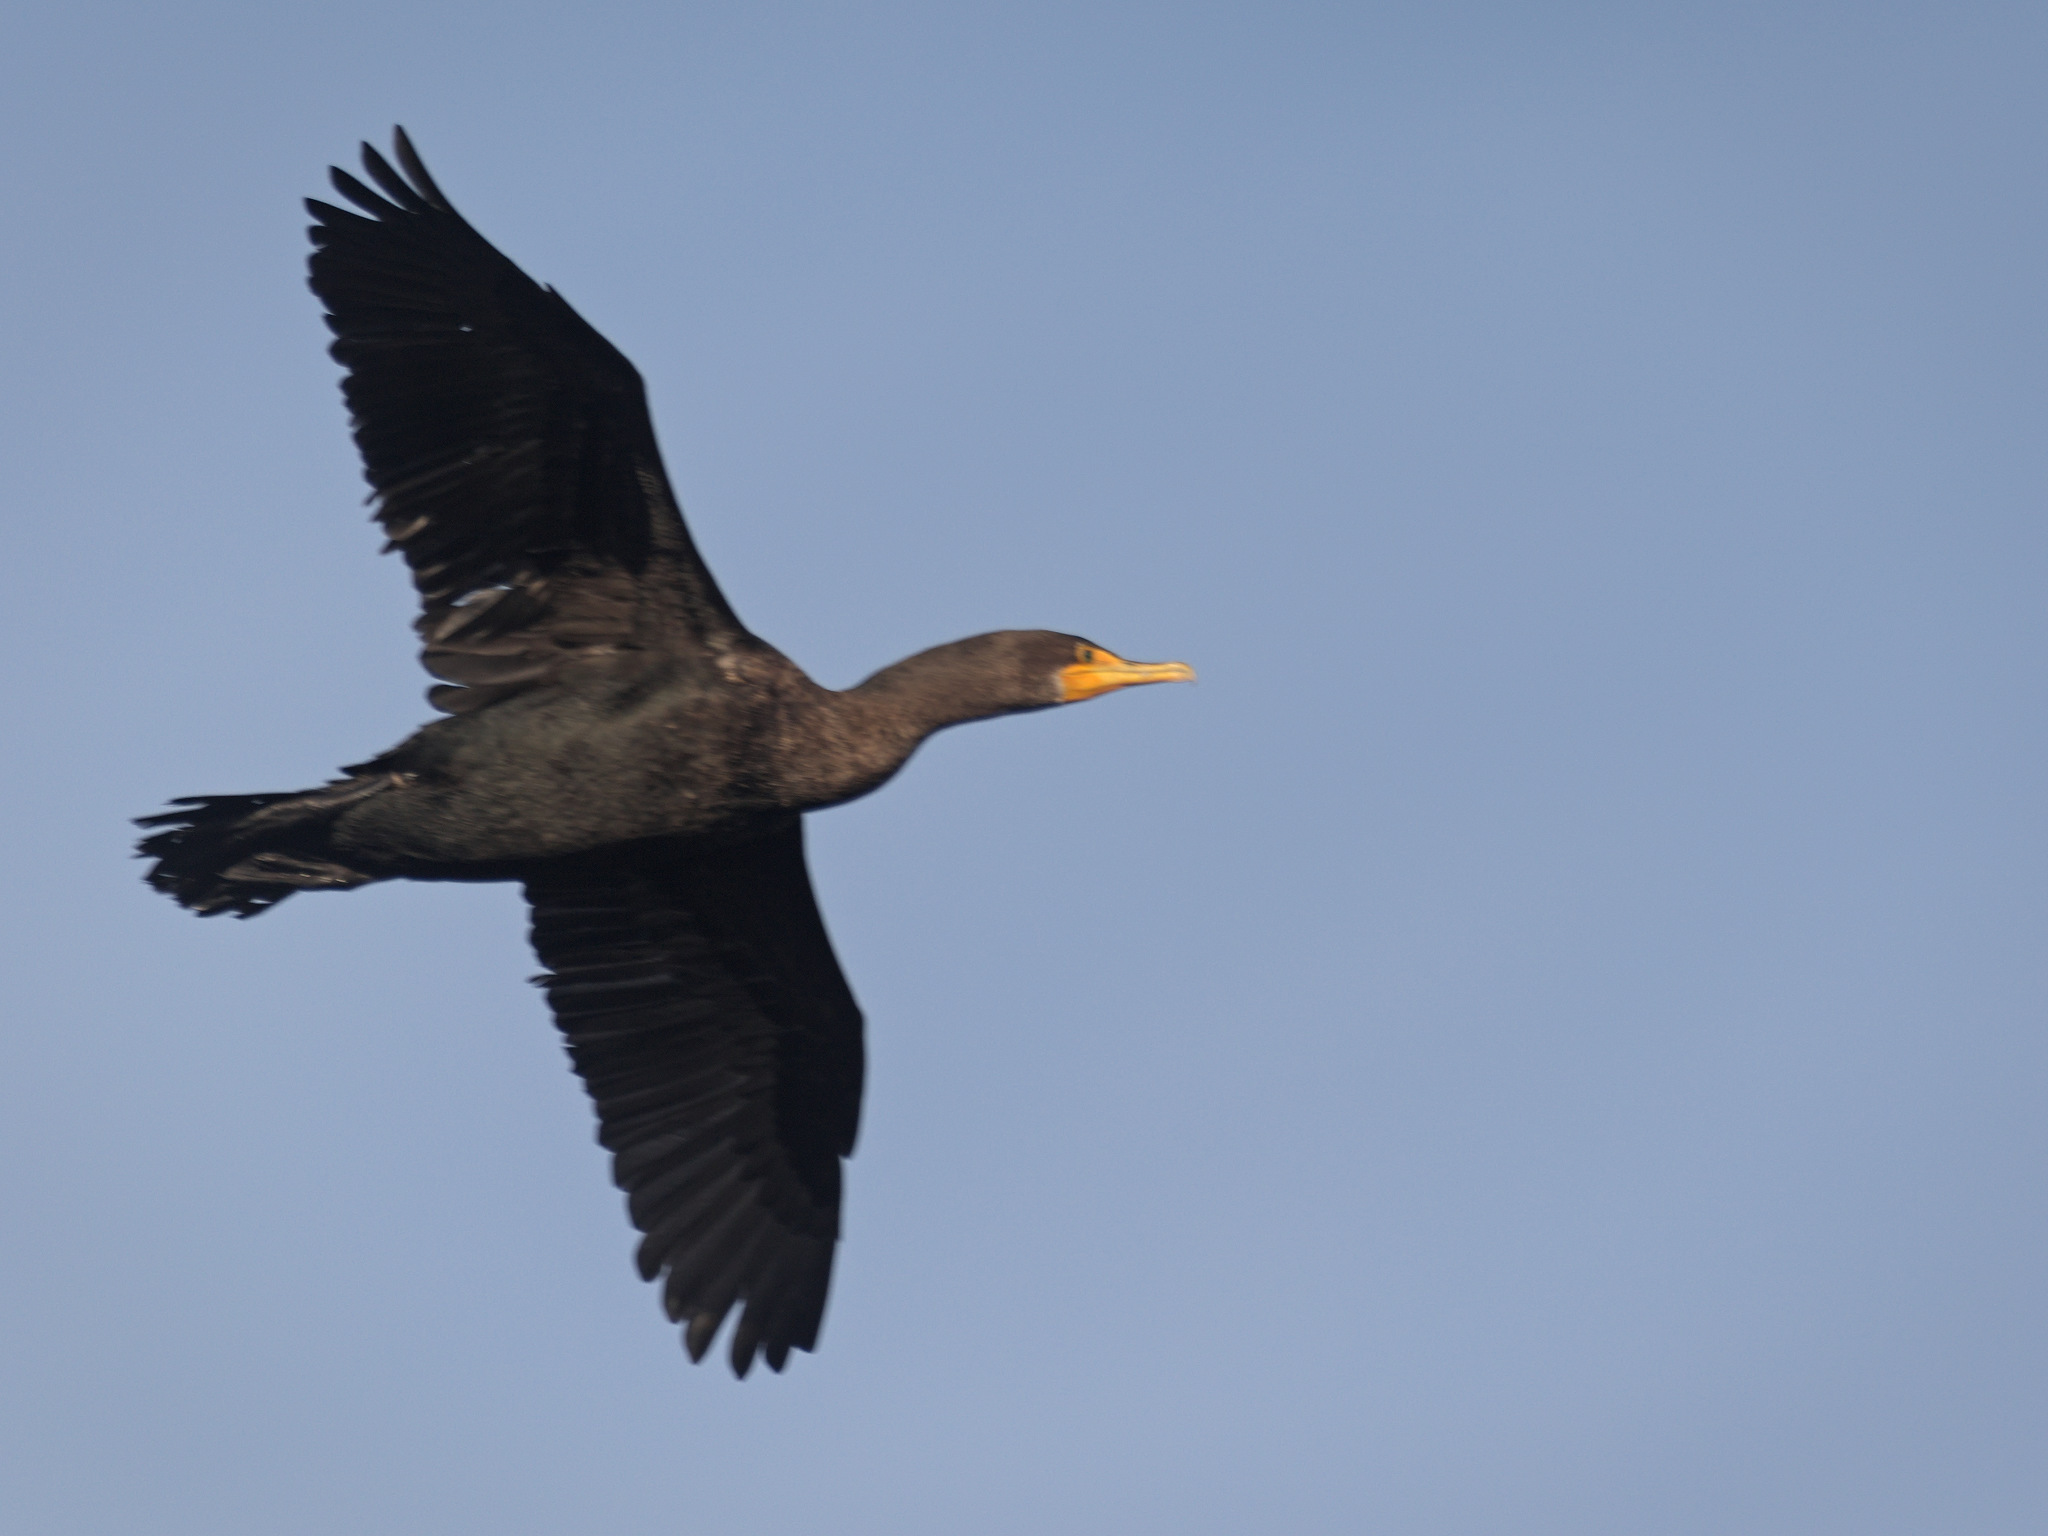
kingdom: Animalia
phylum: Chordata
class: Aves
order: Suliformes
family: Phalacrocoracidae
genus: Phalacrocorax
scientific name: Phalacrocorax auritus
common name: Double-crested cormorant
